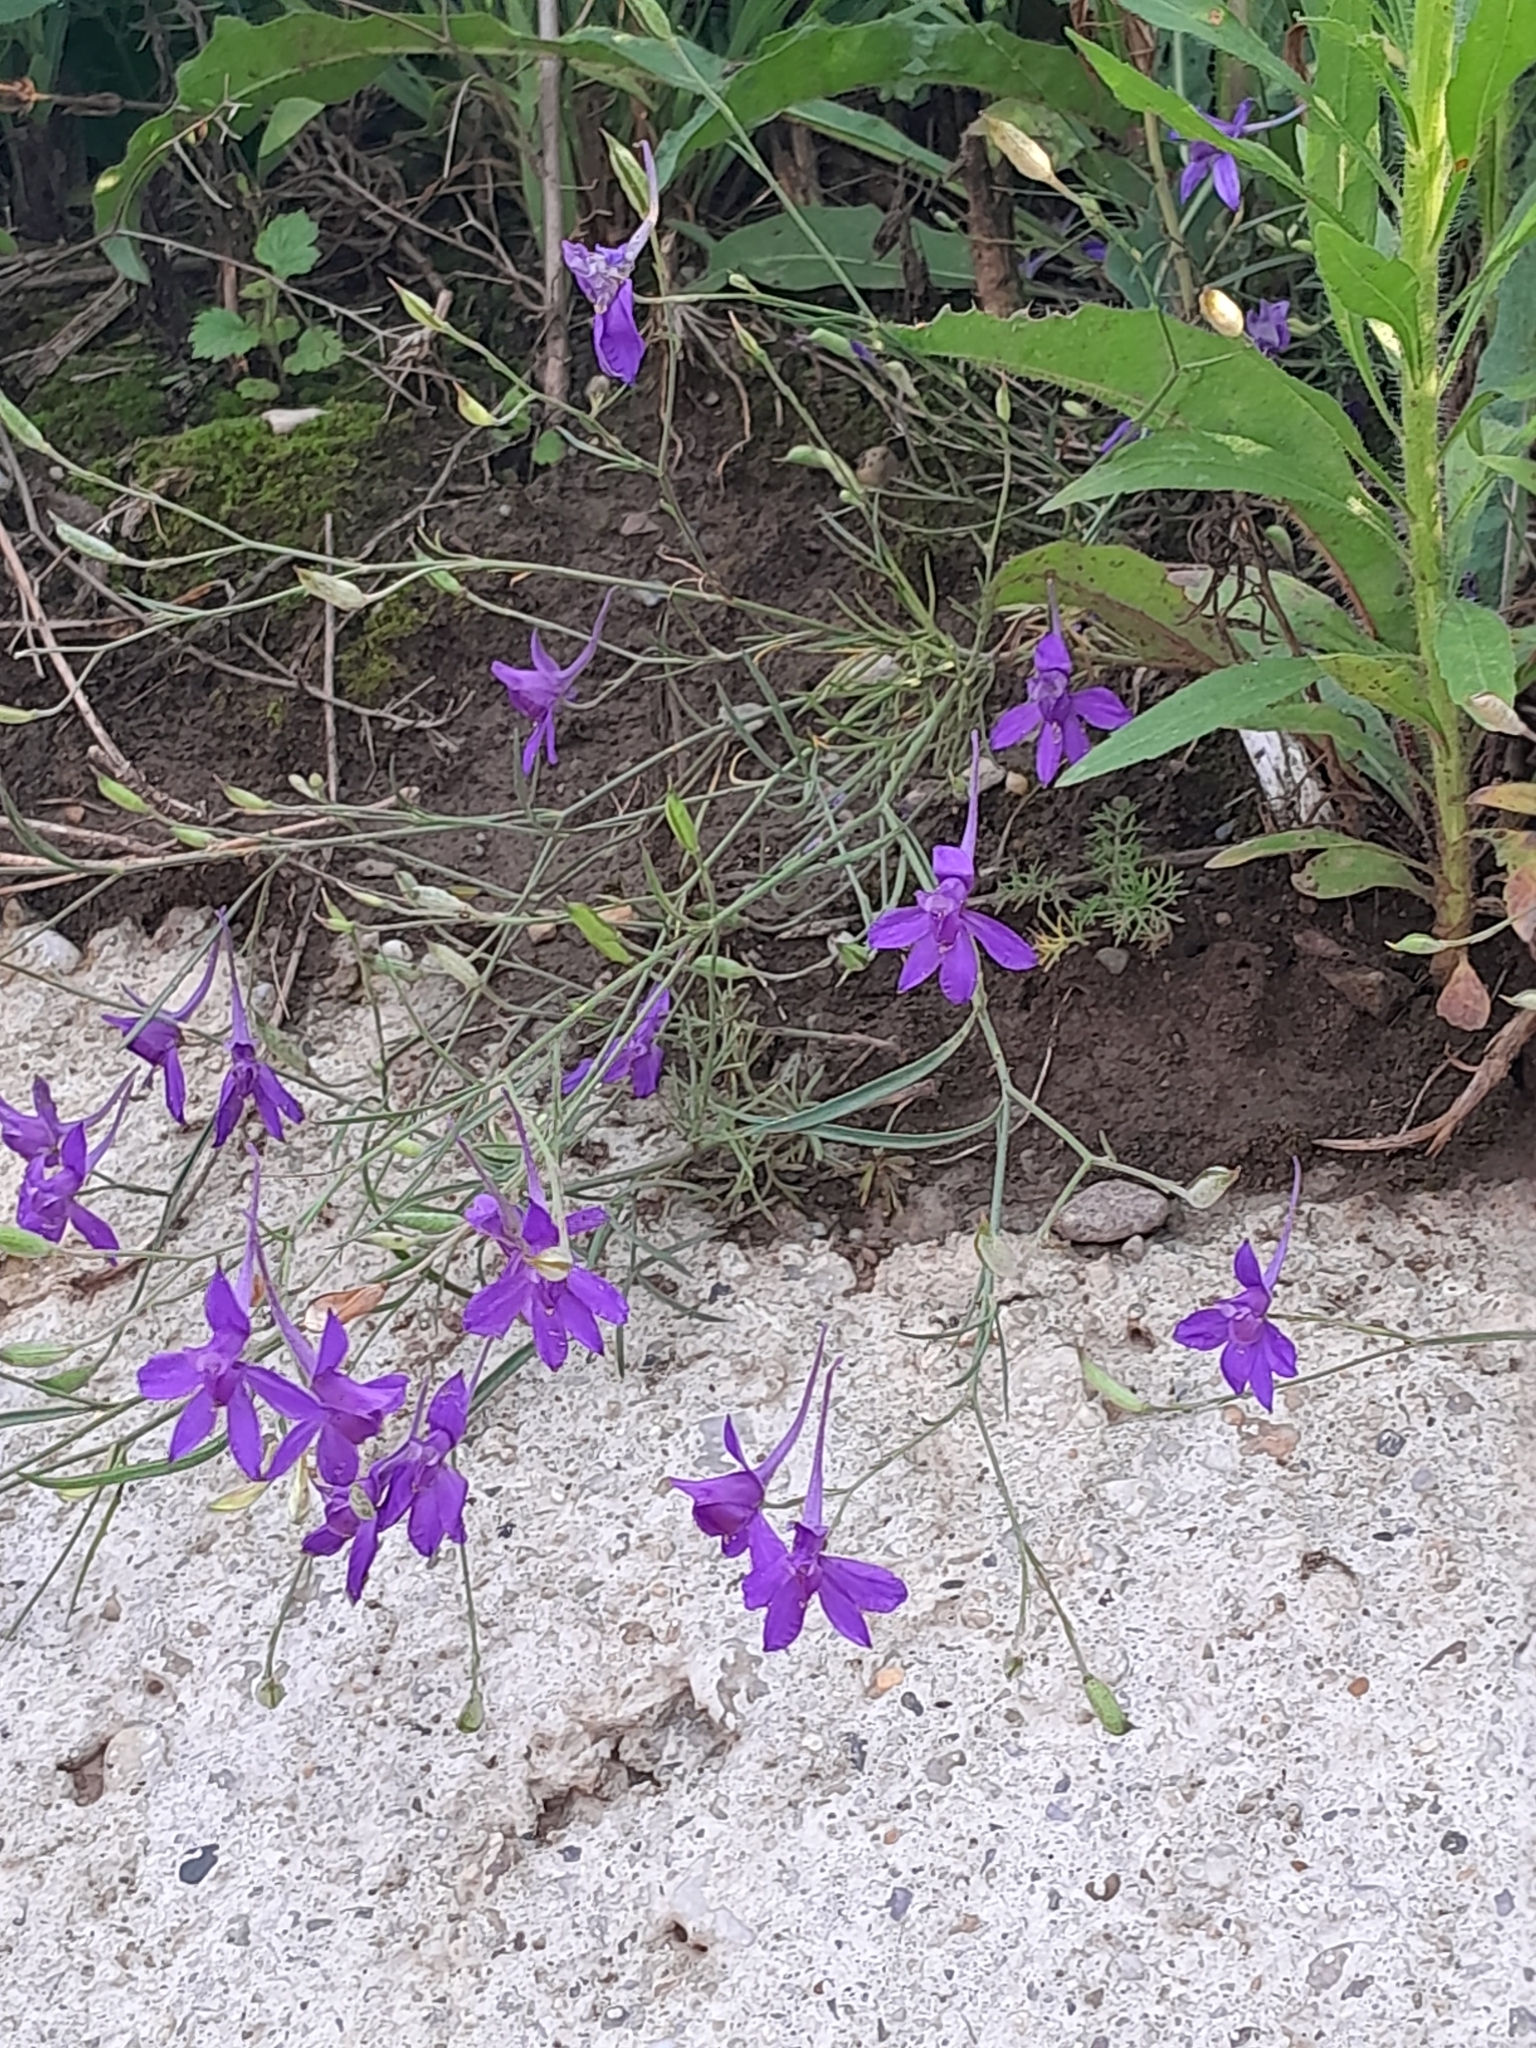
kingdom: Plantae
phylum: Tracheophyta
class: Magnoliopsida
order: Ranunculales
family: Ranunculaceae
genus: Delphinium
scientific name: Delphinium consolida
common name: Branching larkspur
